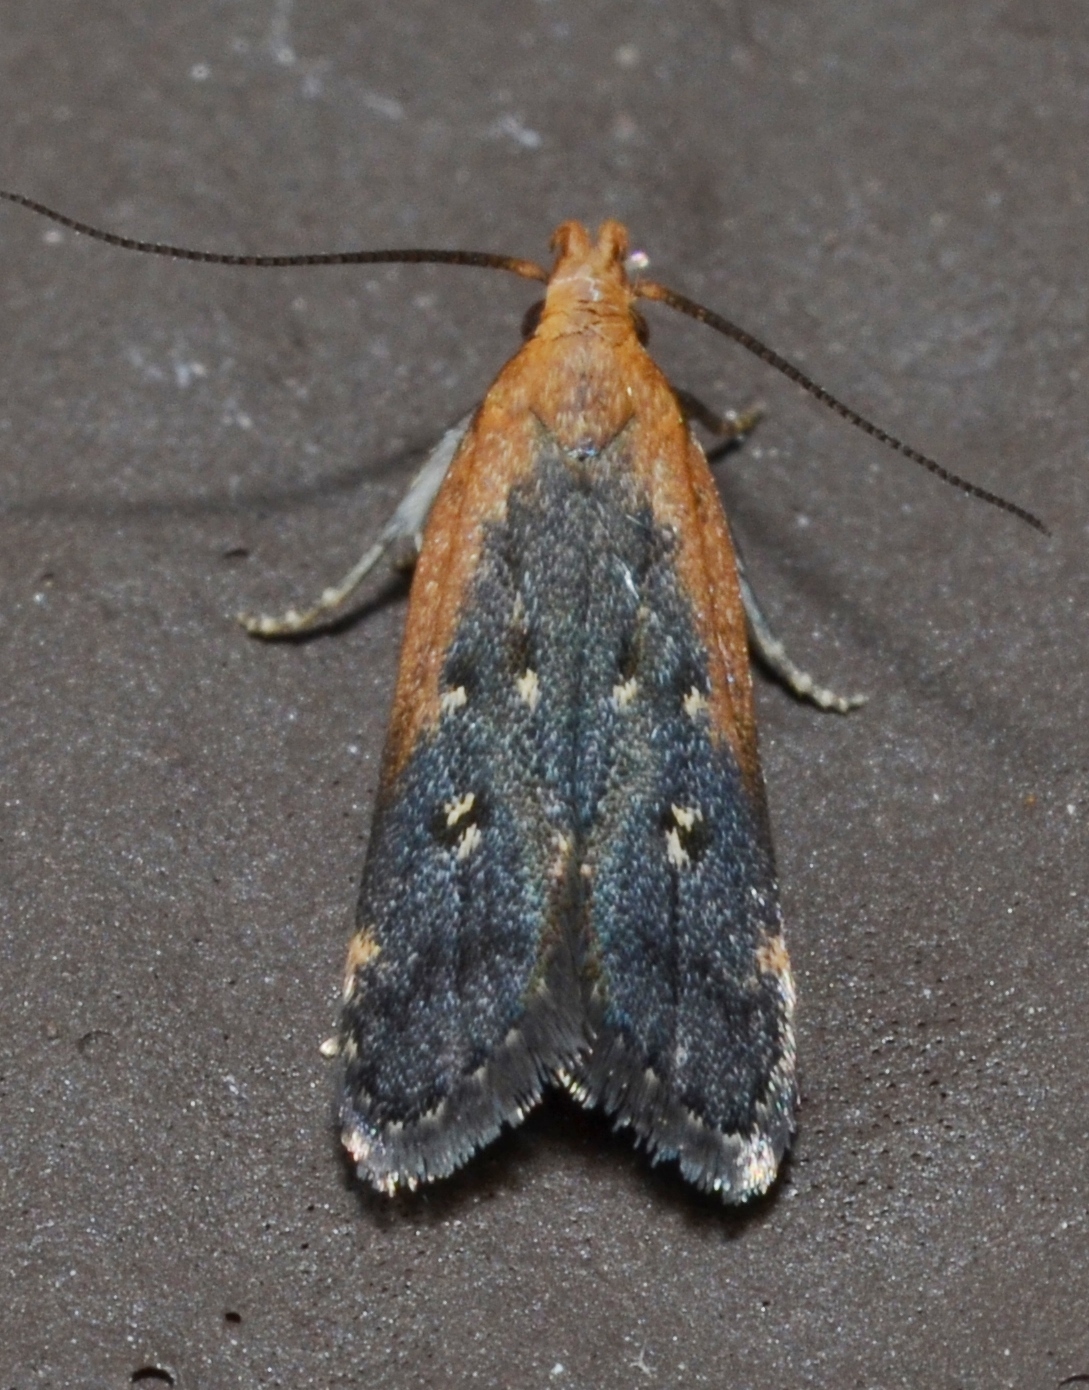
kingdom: Animalia
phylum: Arthropoda
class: Insecta
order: Lepidoptera
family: Gelechiidae
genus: Dichomeris
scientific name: Dichomeris costarufoella
